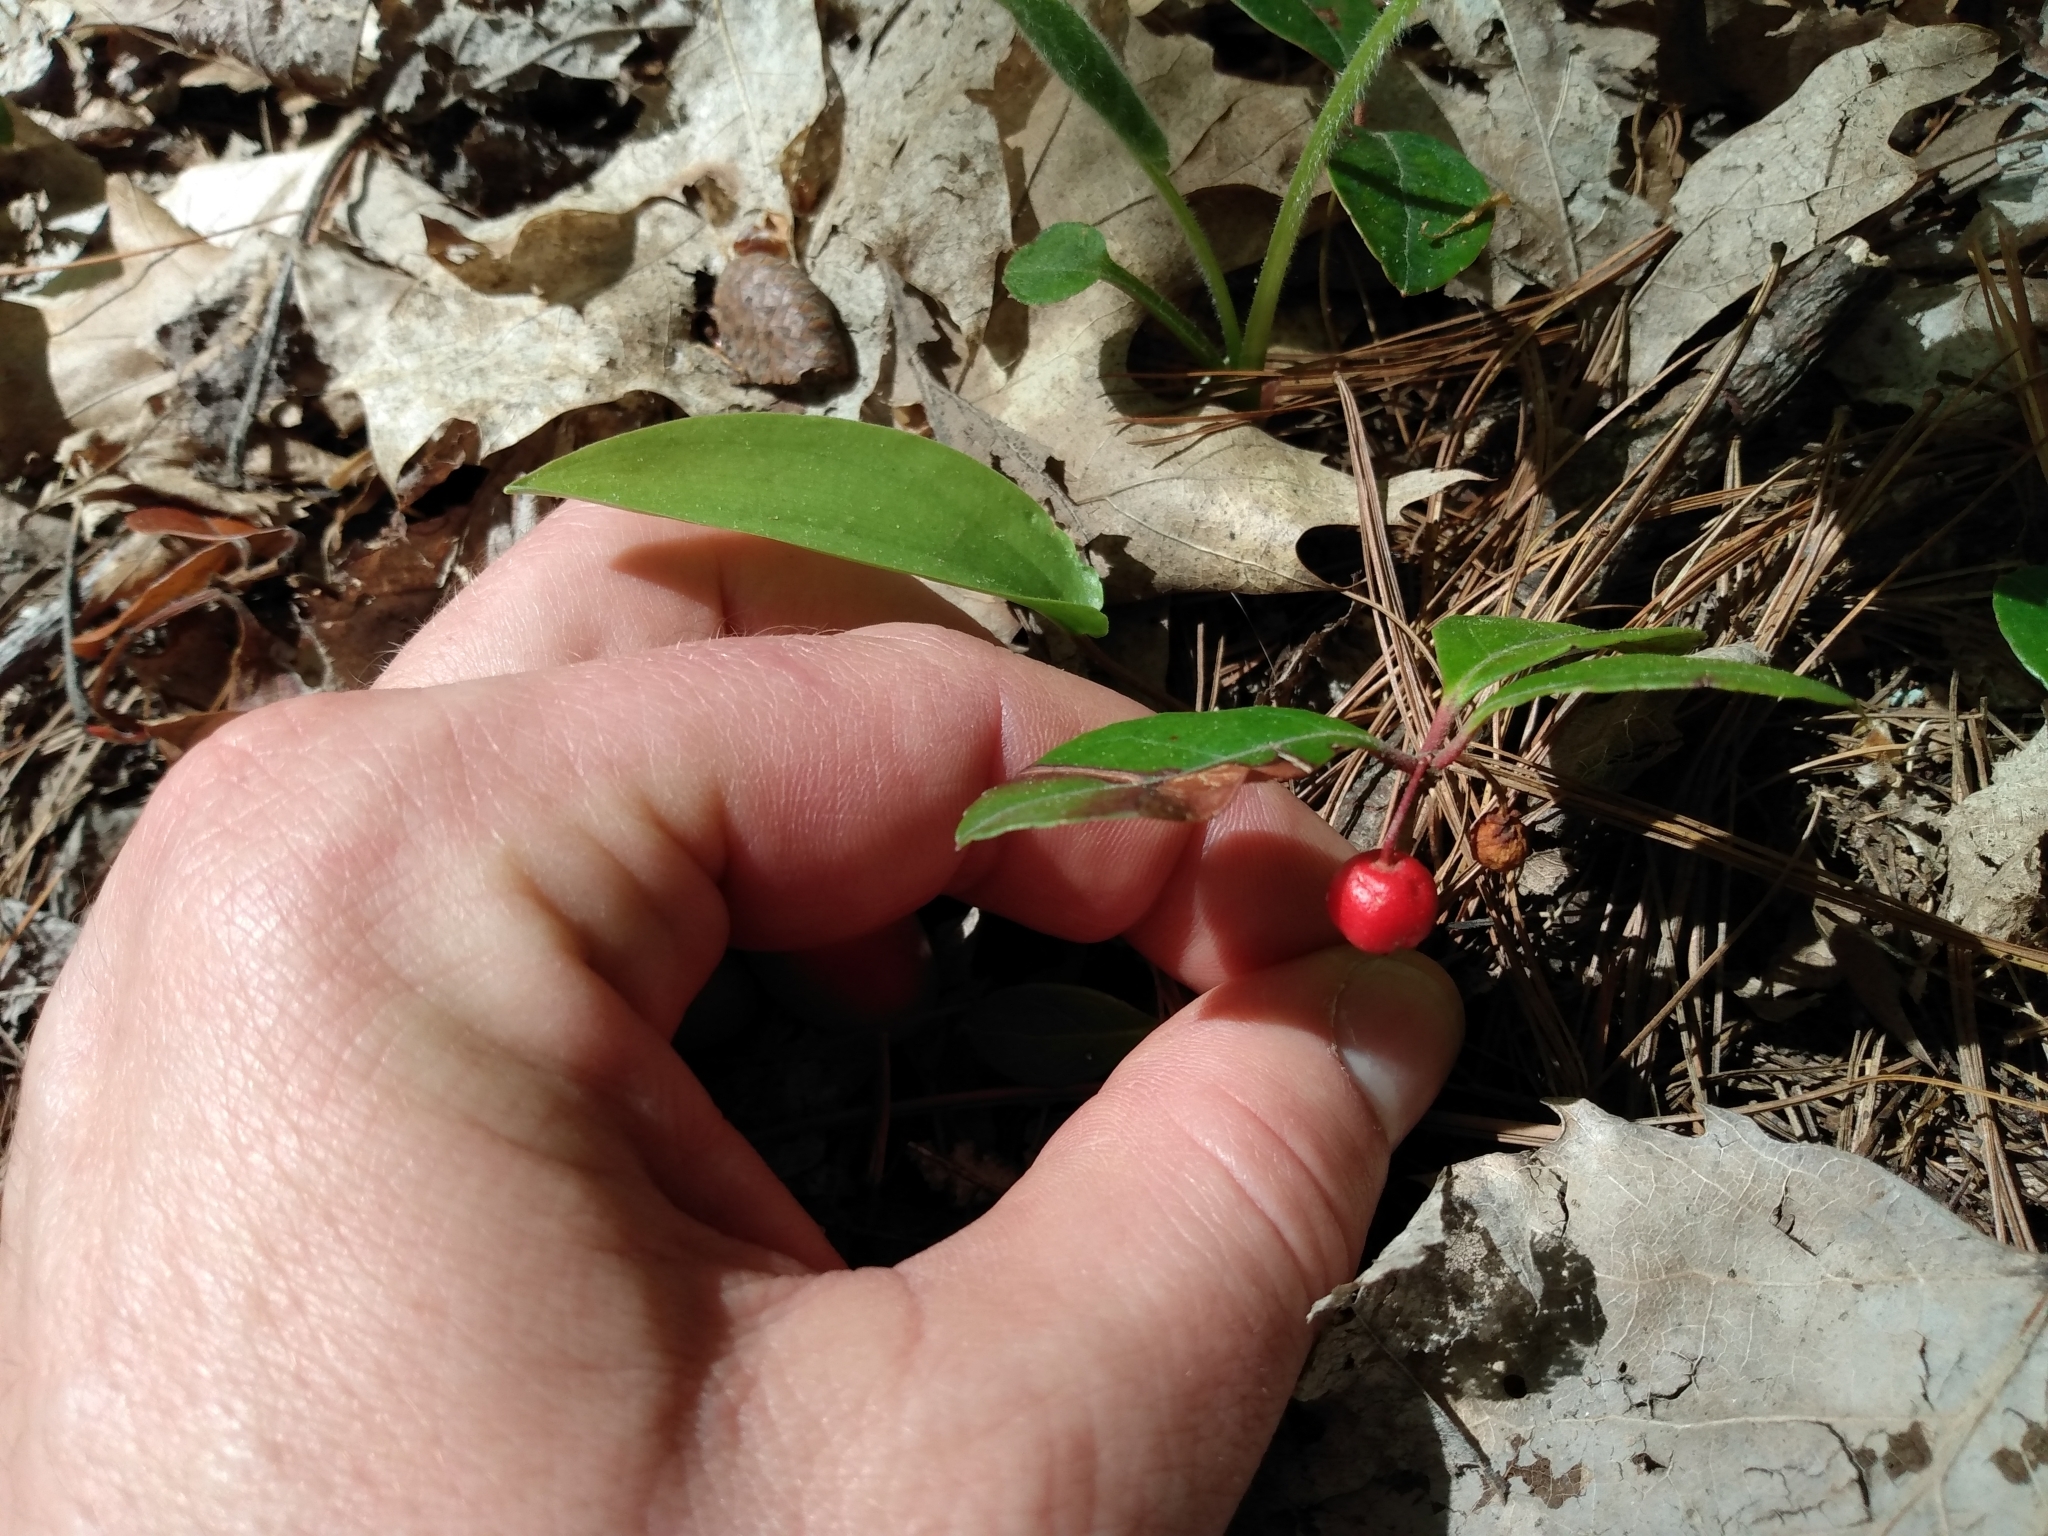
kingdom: Plantae
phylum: Tracheophyta
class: Magnoliopsida
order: Ericales
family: Ericaceae
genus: Gaultheria
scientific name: Gaultheria procumbens
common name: Checkerberry
